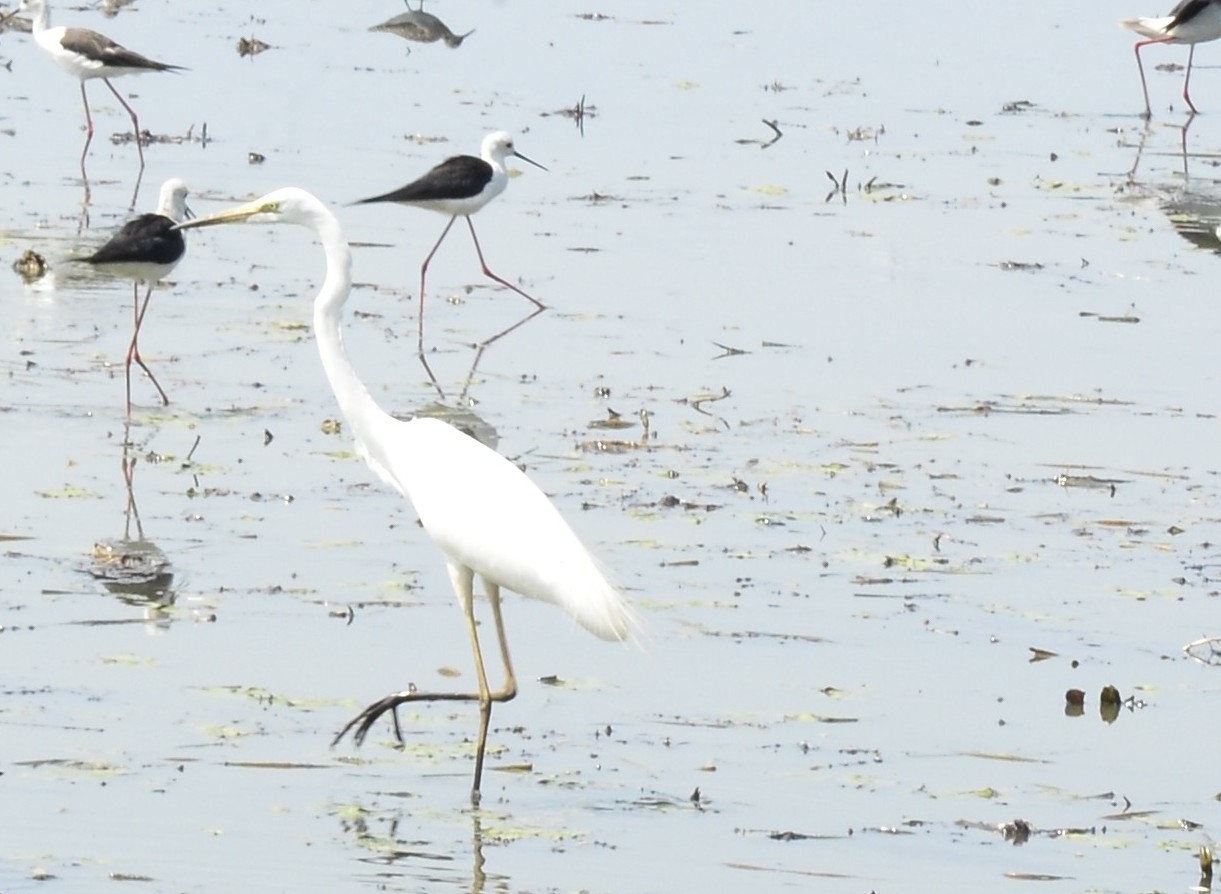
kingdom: Animalia
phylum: Chordata
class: Aves
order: Pelecaniformes
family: Ardeidae
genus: Ardea
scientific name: Ardea alba
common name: Great egret
